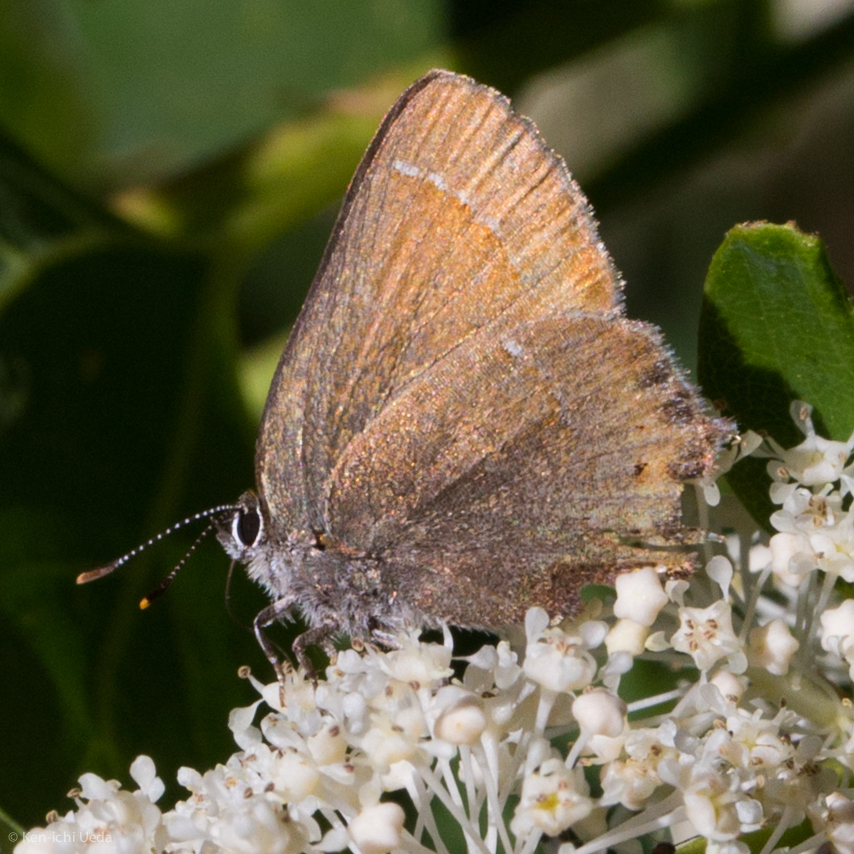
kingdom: Animalia
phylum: Arthropoda
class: Insecta
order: Lepidoptera
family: Lycaenidae
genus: Mitoura
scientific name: Mitoura nelsoni
